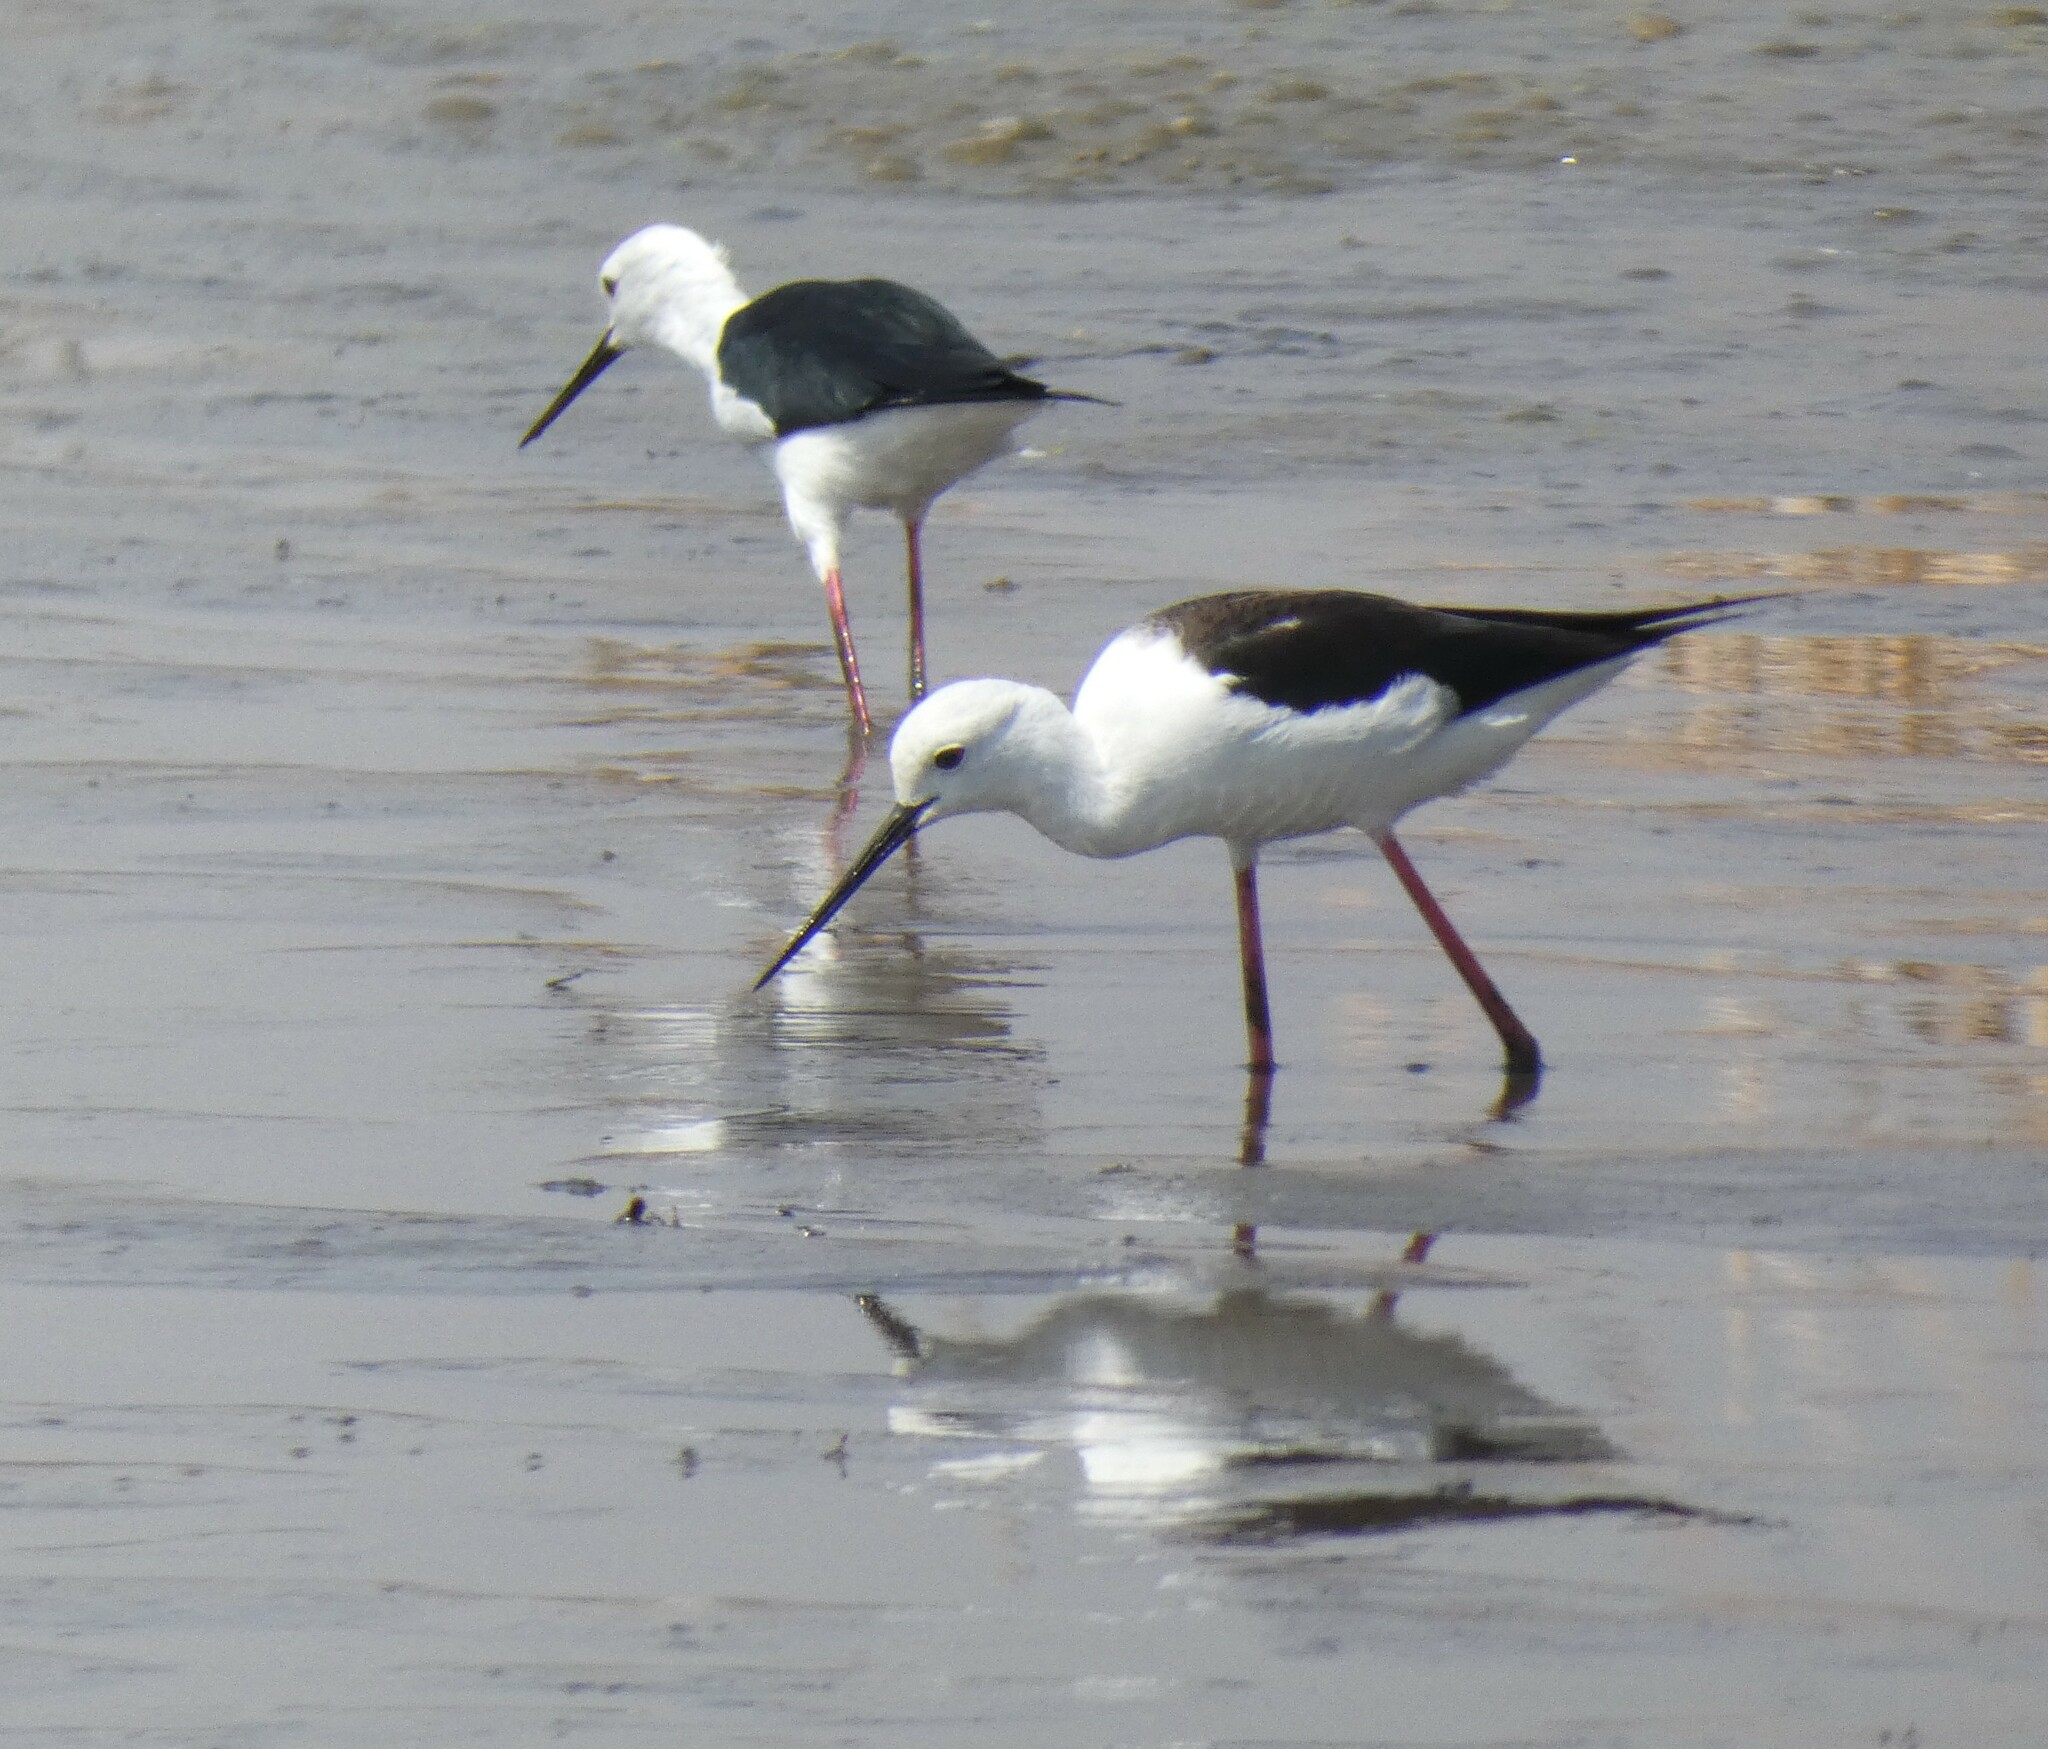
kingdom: Animalia
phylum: Chordata
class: Aves
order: Charadriiformes
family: Recurvirostridae
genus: Himantopus
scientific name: Himantopus himantopus
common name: Black-winged stilt
